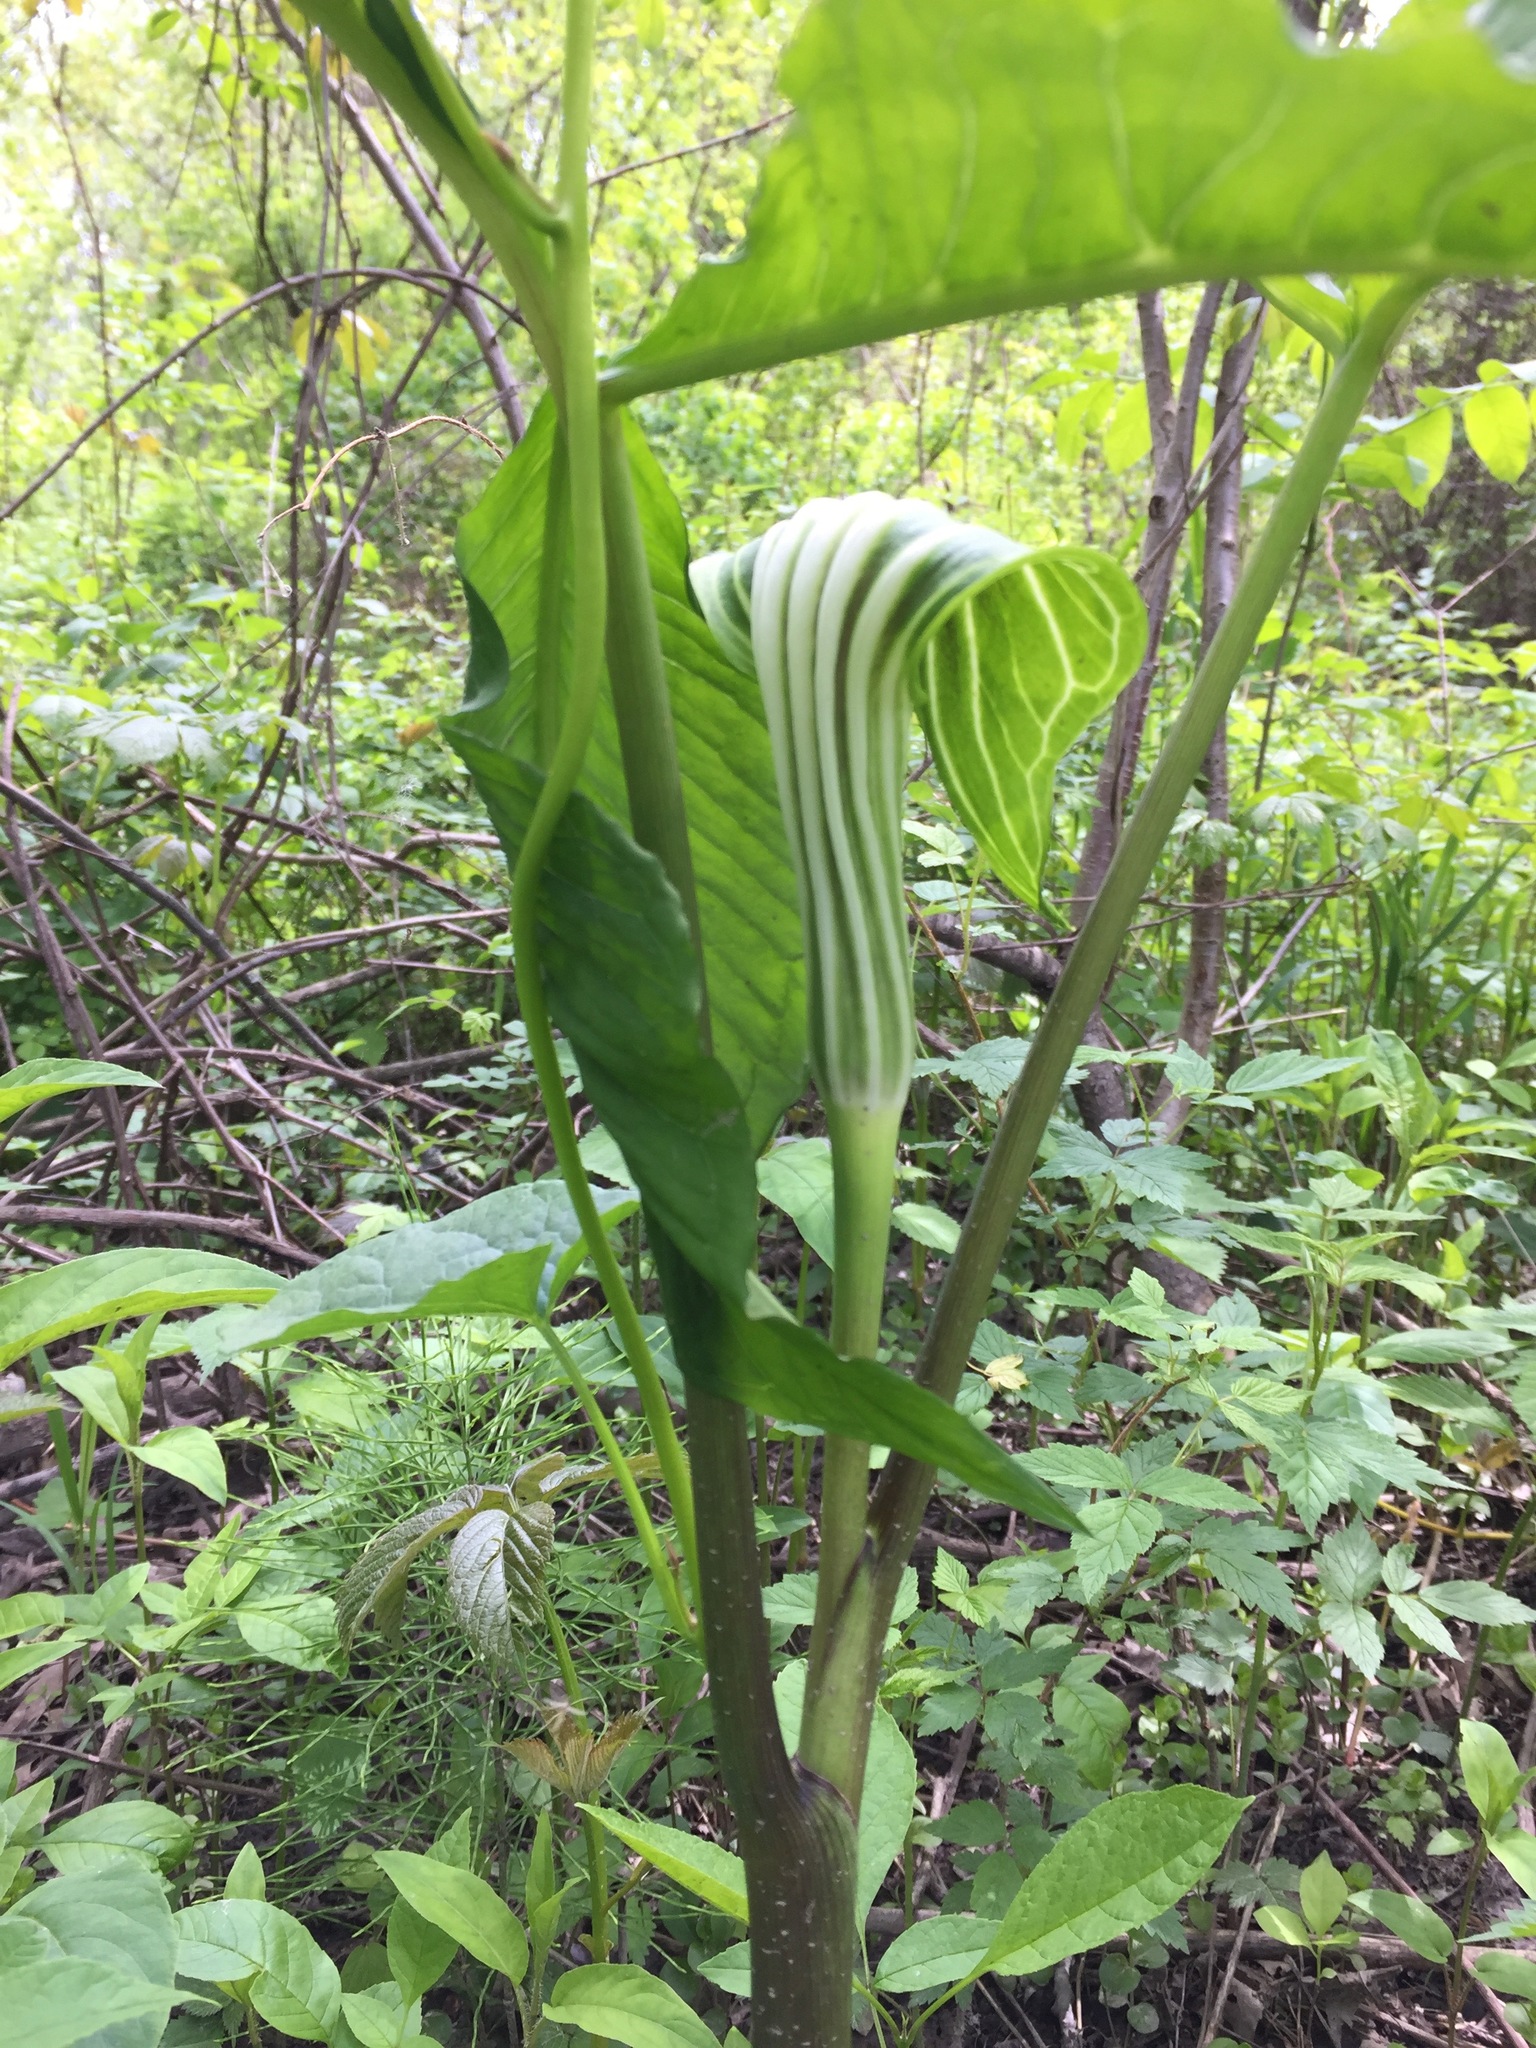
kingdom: Plantae
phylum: Tracheophyta
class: Liliopsida
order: Alismatales
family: Araceae
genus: Arisaema
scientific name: Arisaema stewardsonii
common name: Swamp jack-in-the-pulpit
